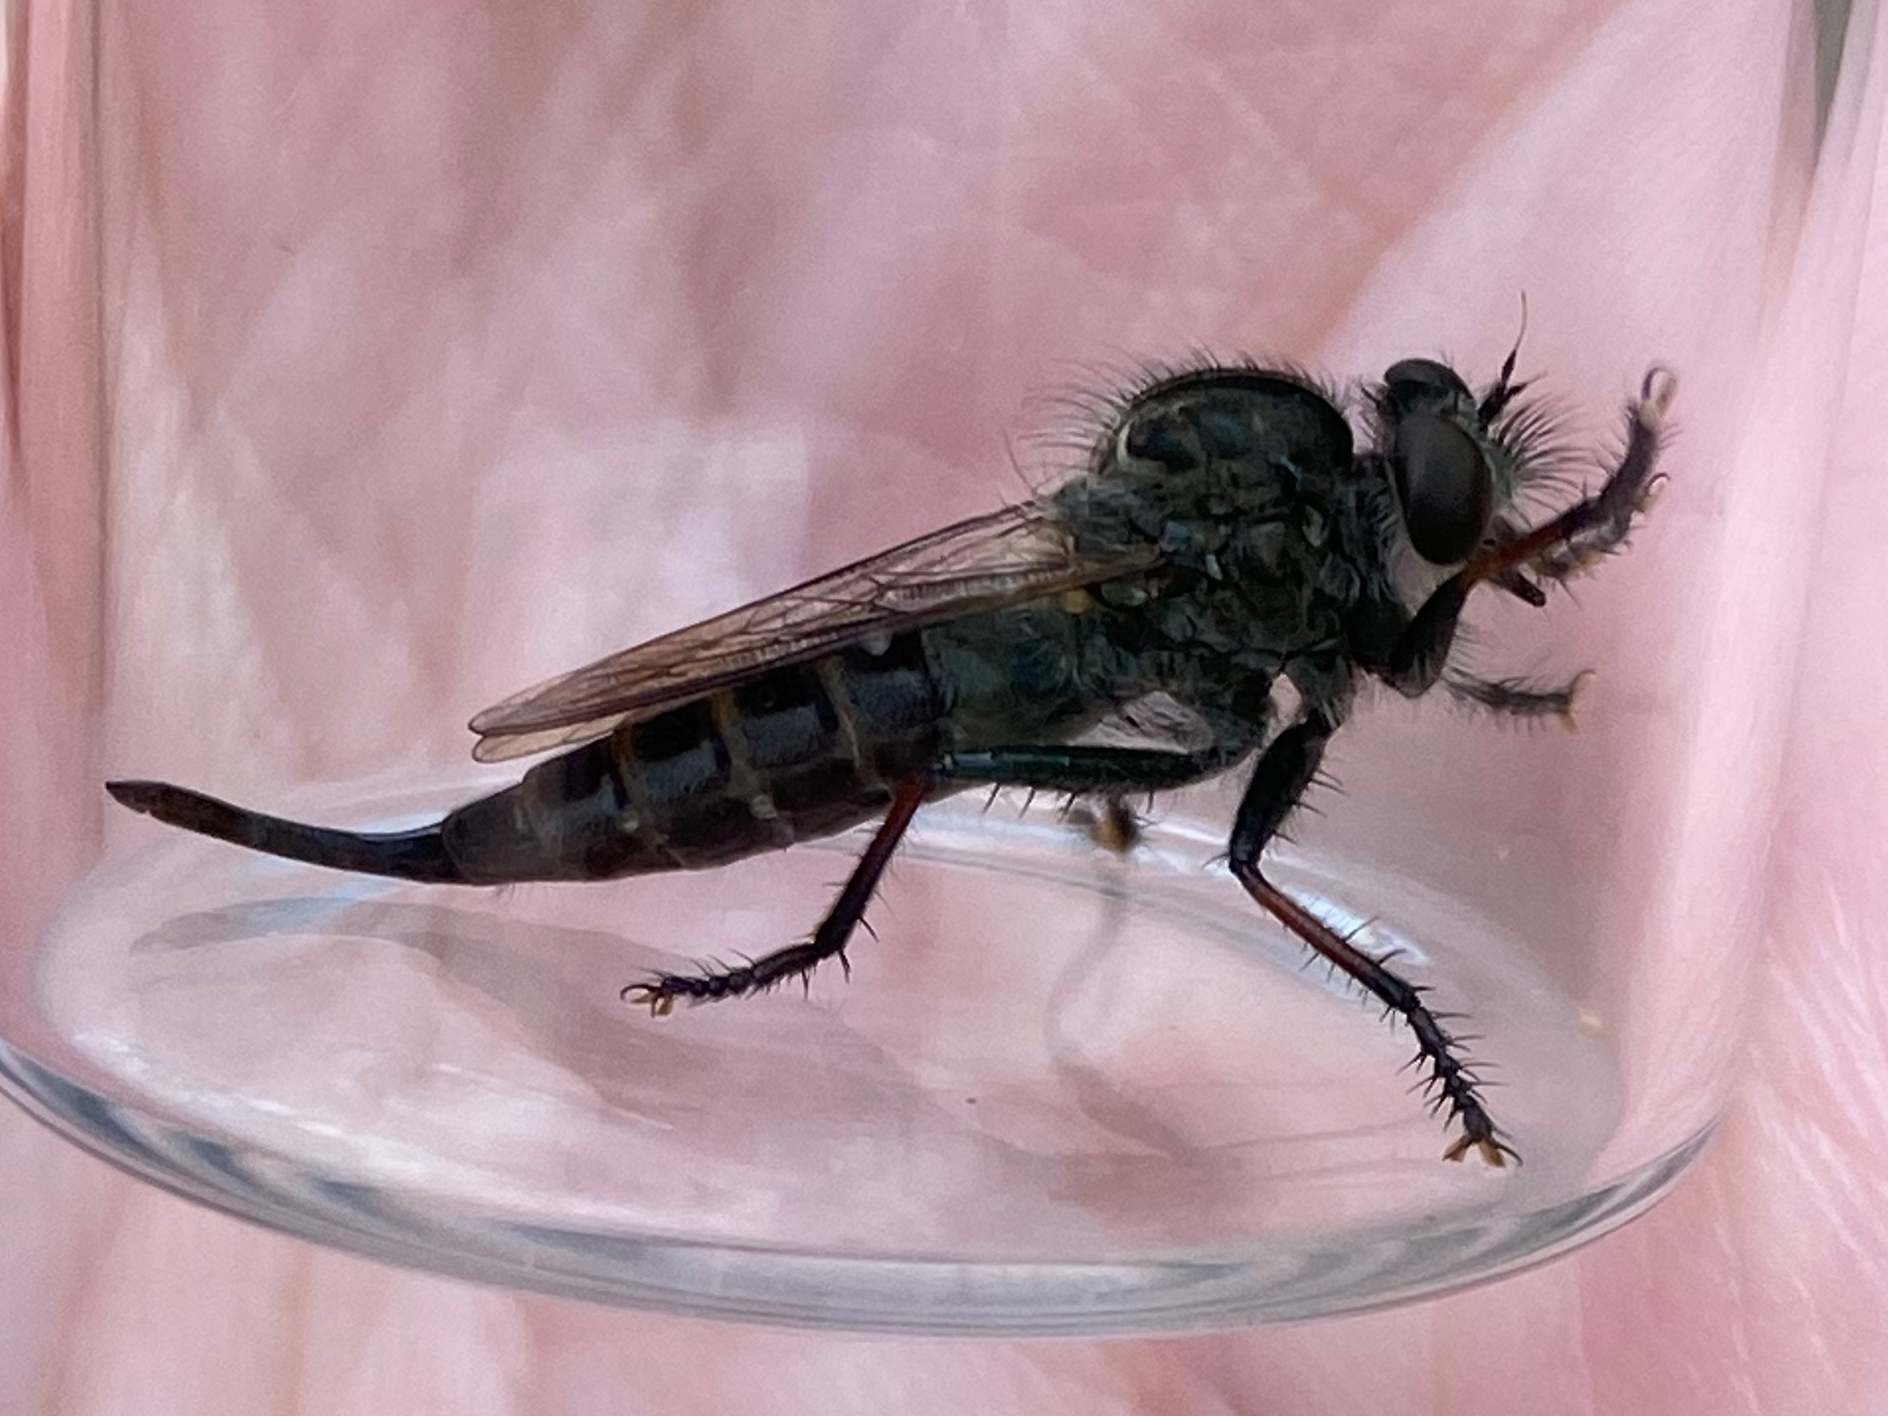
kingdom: Animalia
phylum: Arthropoda
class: Insecta
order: Diptera
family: Asilidae
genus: Efferia
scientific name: Efferia aestuans
